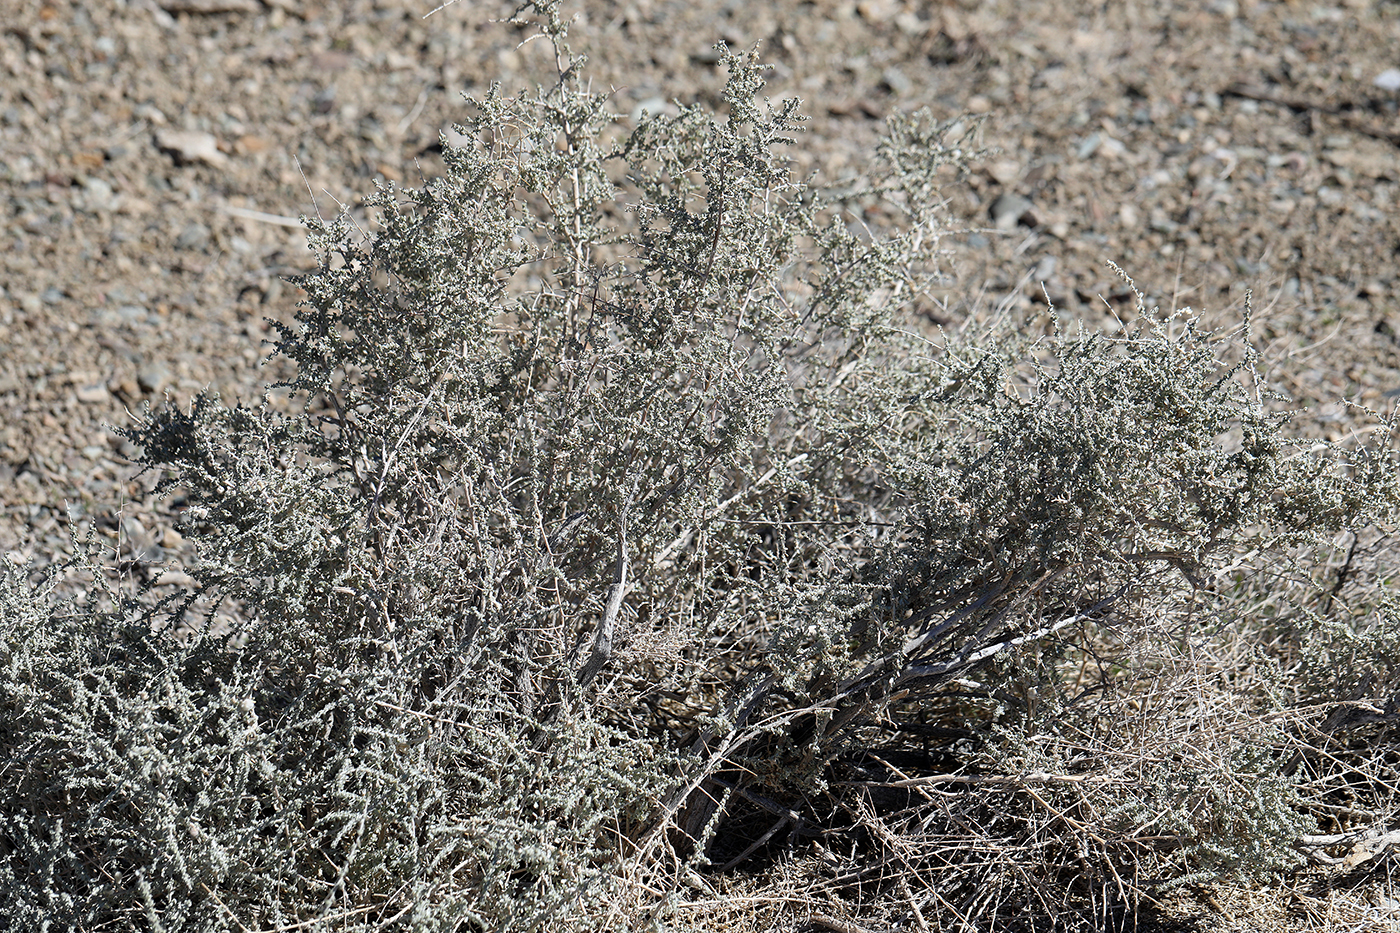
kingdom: Plantae
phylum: Tracheophyta
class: Magnoliopsida
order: Caryophyllales
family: Amaranthaceae
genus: Atriplex
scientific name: Atriplex polycarpa
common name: Desert saltbush
